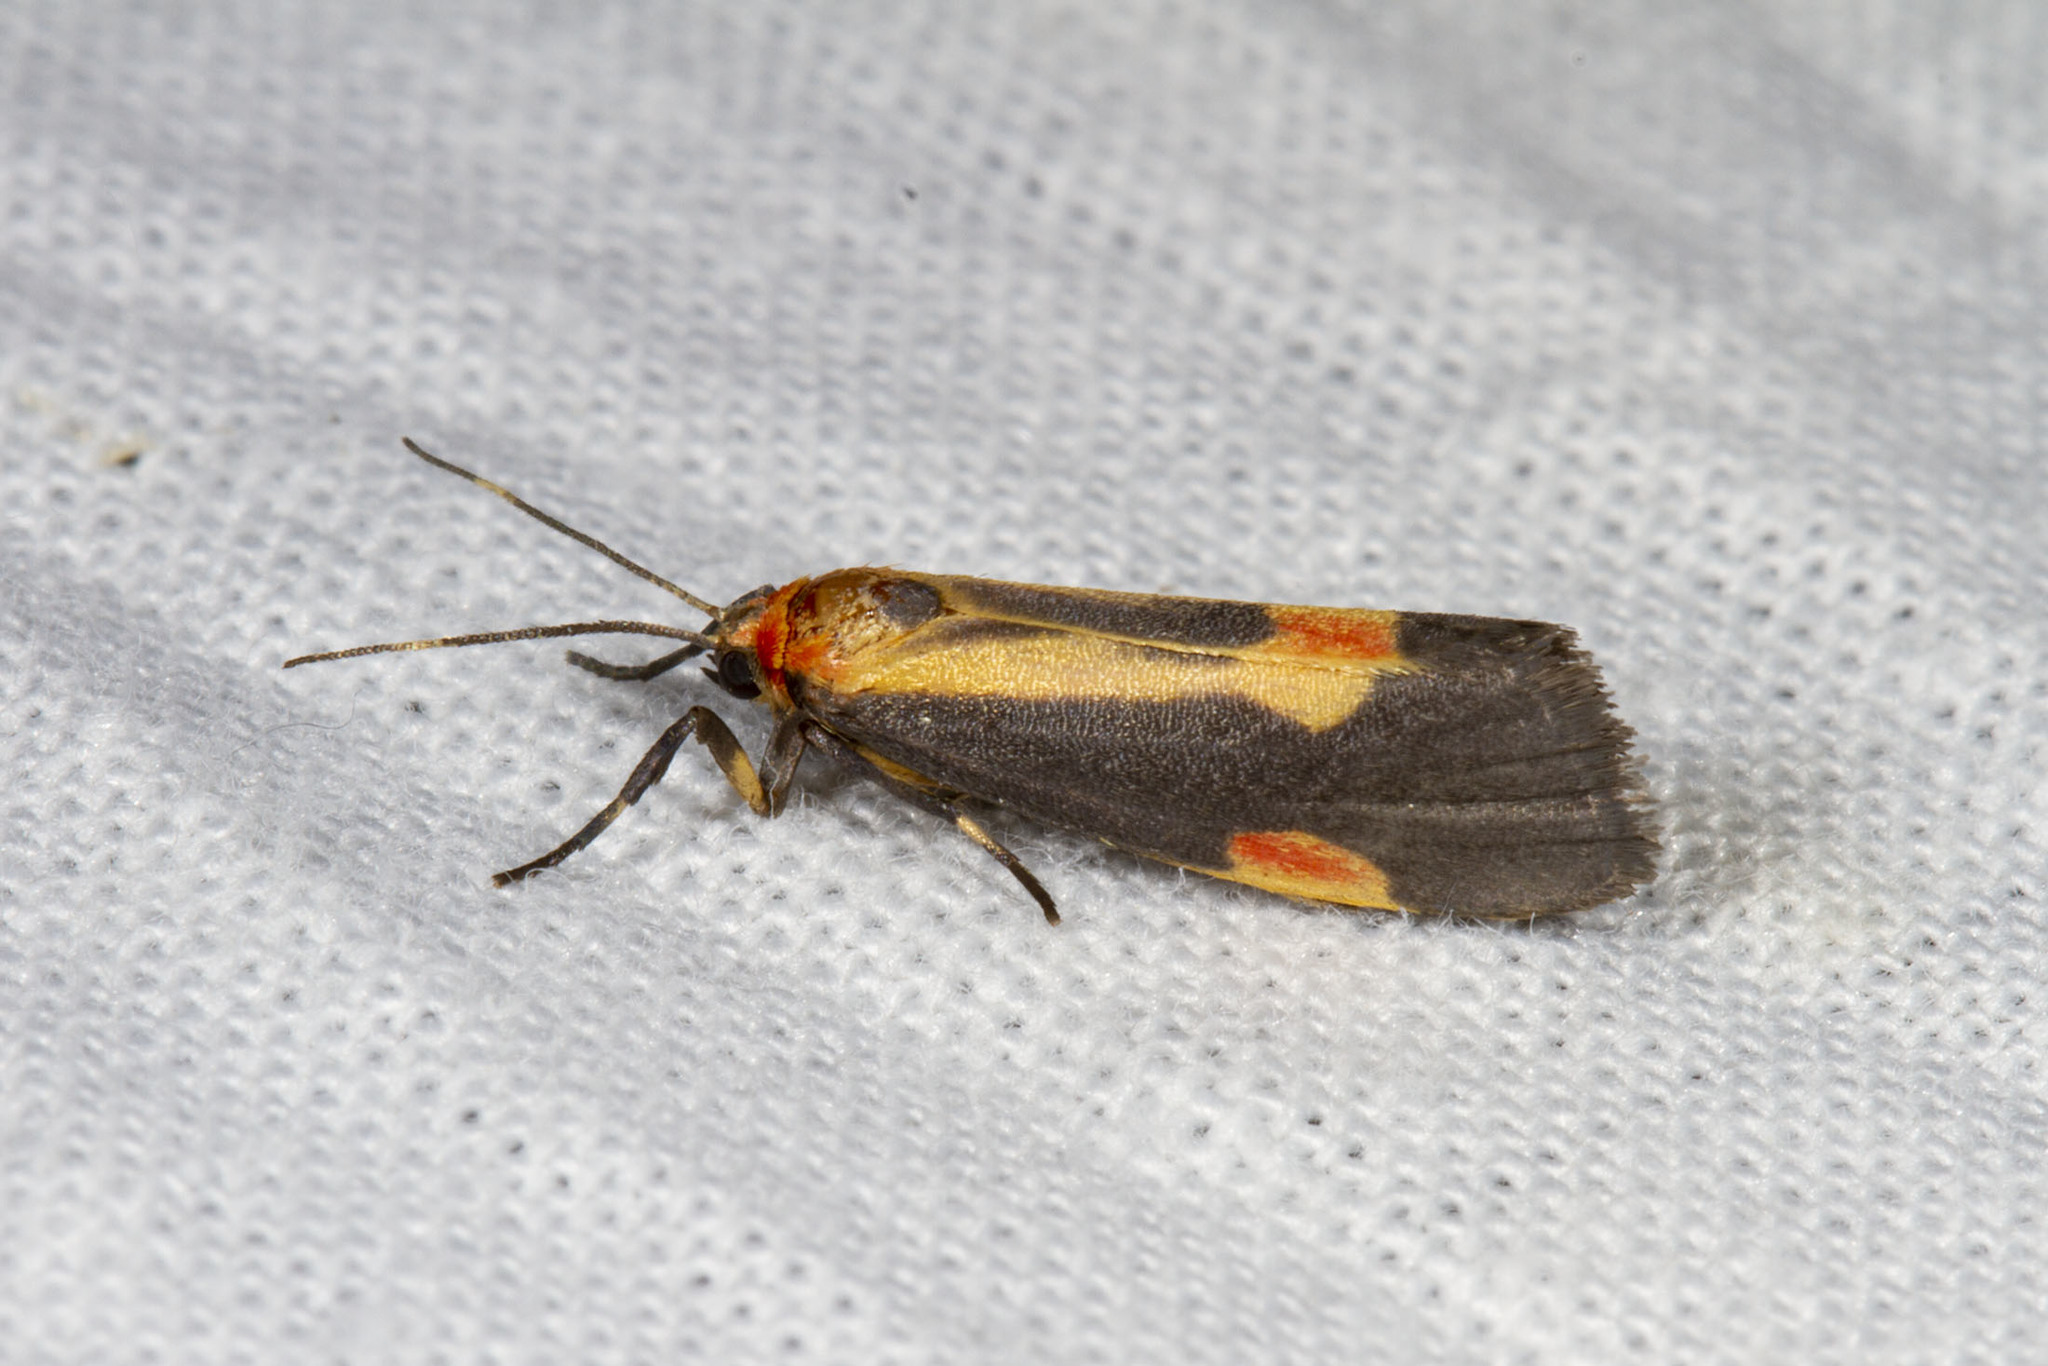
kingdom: Animalia
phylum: Arthropoda
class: Insecta
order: Lepidoptera
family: Erebidae
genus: Cisthene
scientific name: Cisthene packardii
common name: Packard's lichen moth
